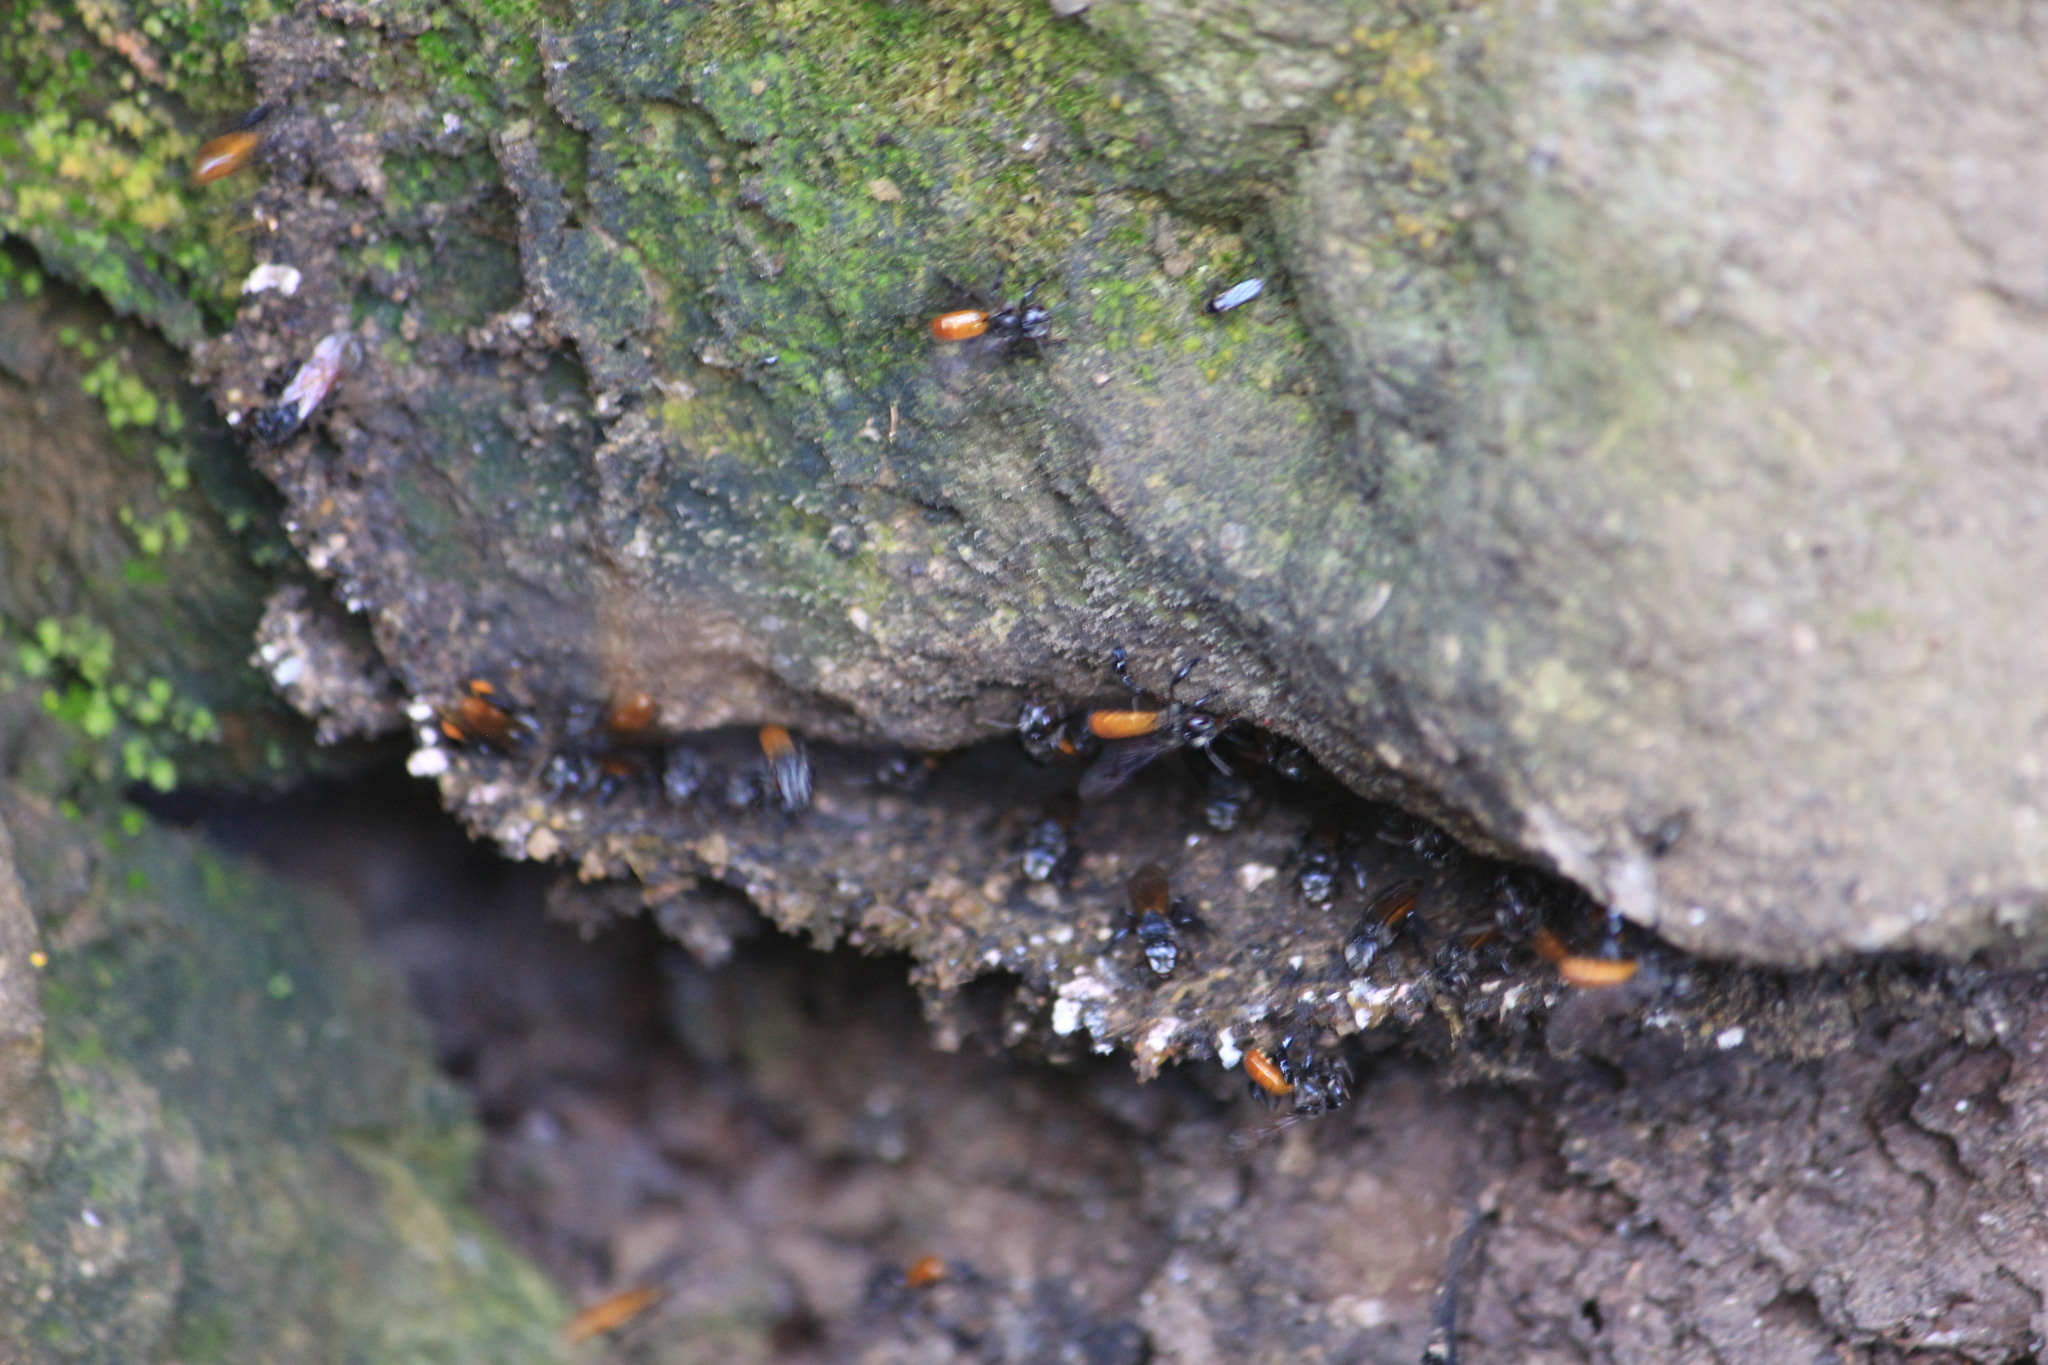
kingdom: Animalia
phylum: Arthropoda
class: Insecta
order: Hymenoptera
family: Apidae
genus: Trigona
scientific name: Trigona fulviventris
